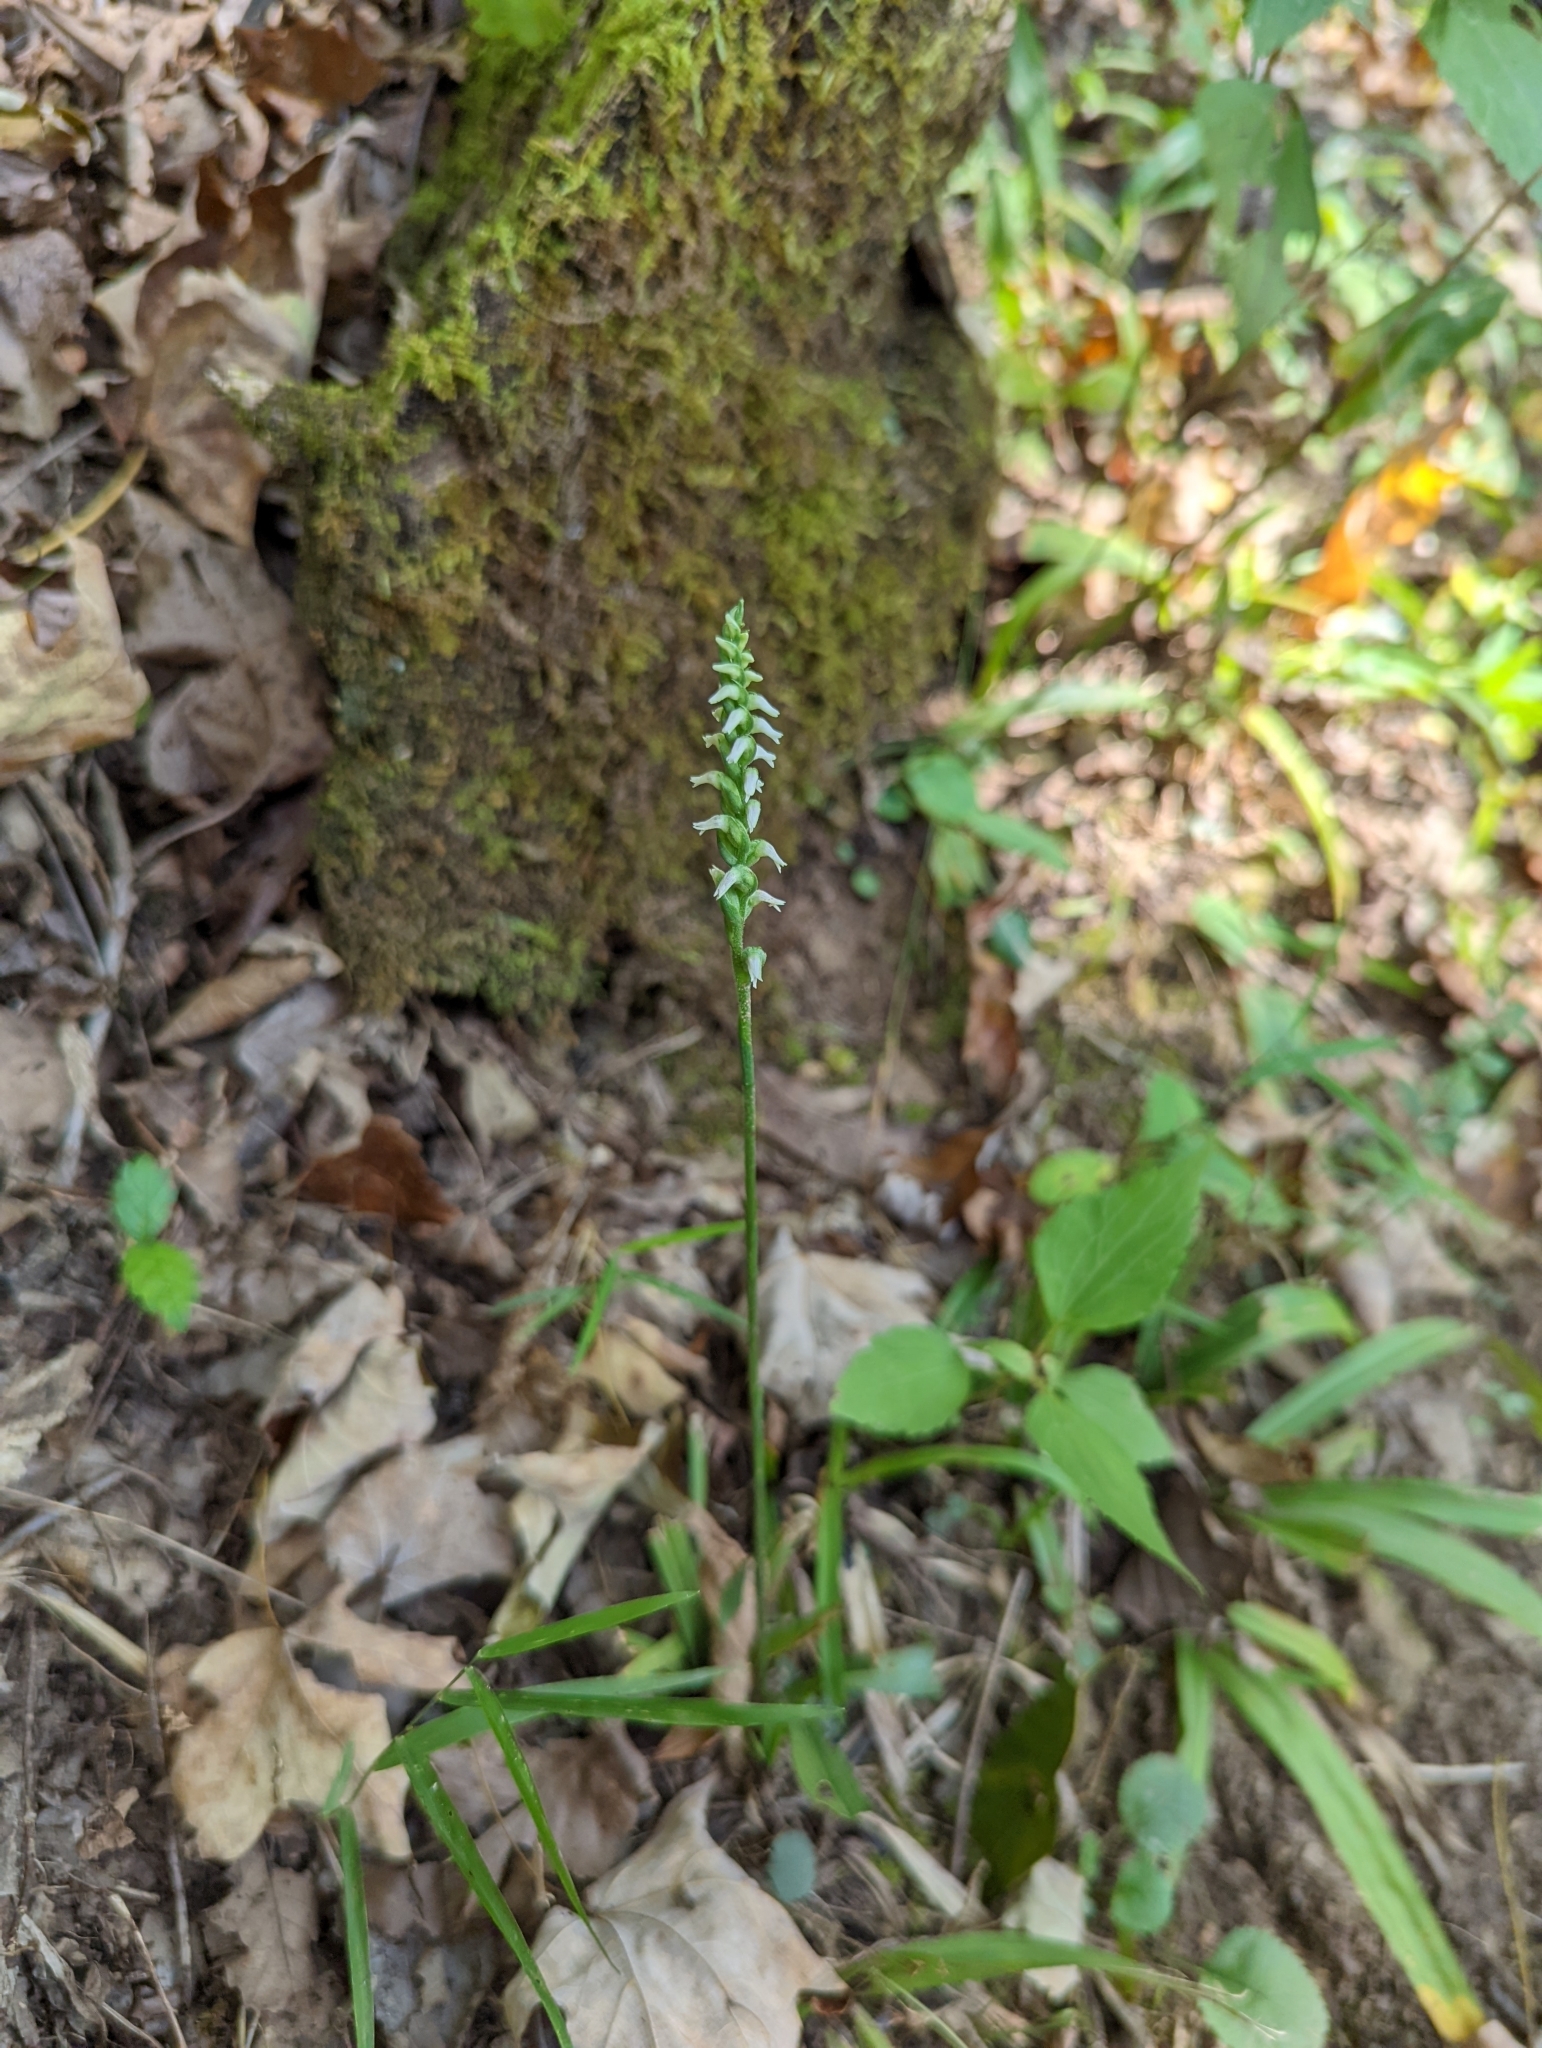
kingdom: Plantae
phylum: Tracheophyta
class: Liliopsida
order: Asparagales
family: Orchidaceae
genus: Spiranthes
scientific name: Spiranthes ovalis
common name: October ladies'-tresses
